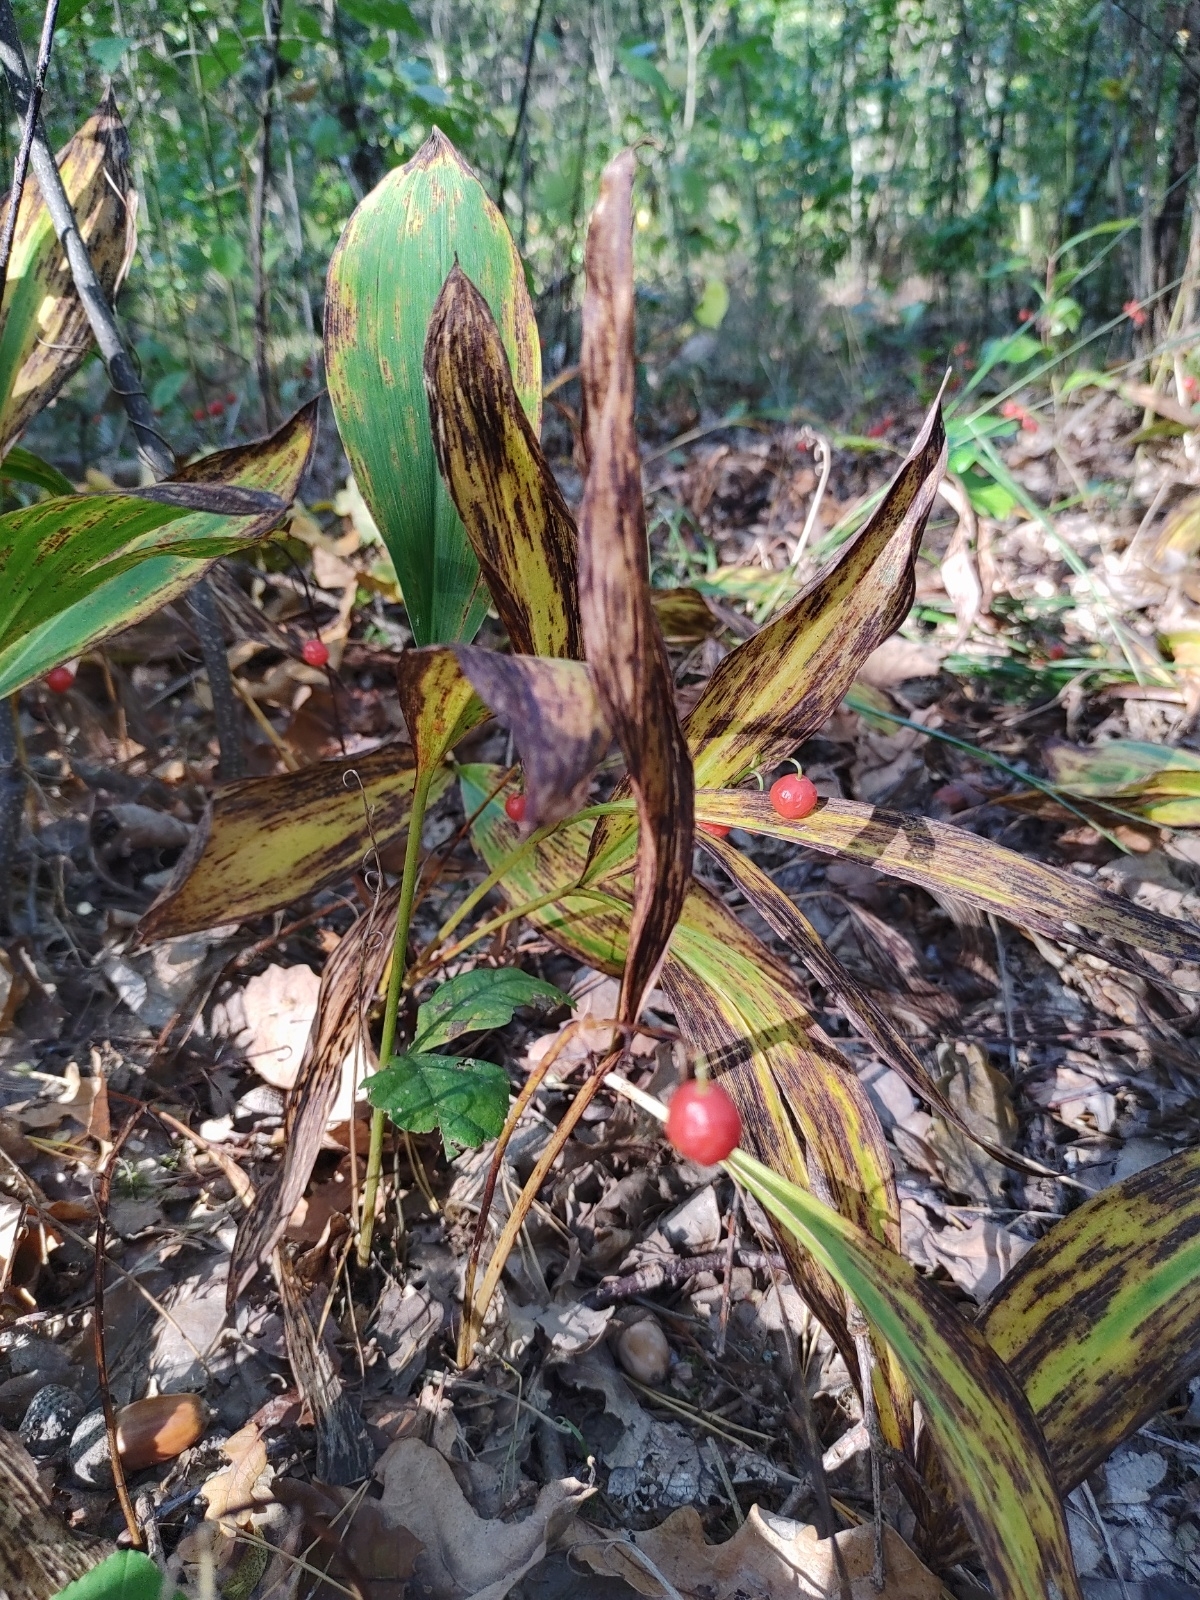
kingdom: Plantae
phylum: Tracheophyta
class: Liliopsida
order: Asparagales
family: Asparagaceae
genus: Convallaria
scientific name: Convallaria majalis
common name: Lily-of-the-valley
